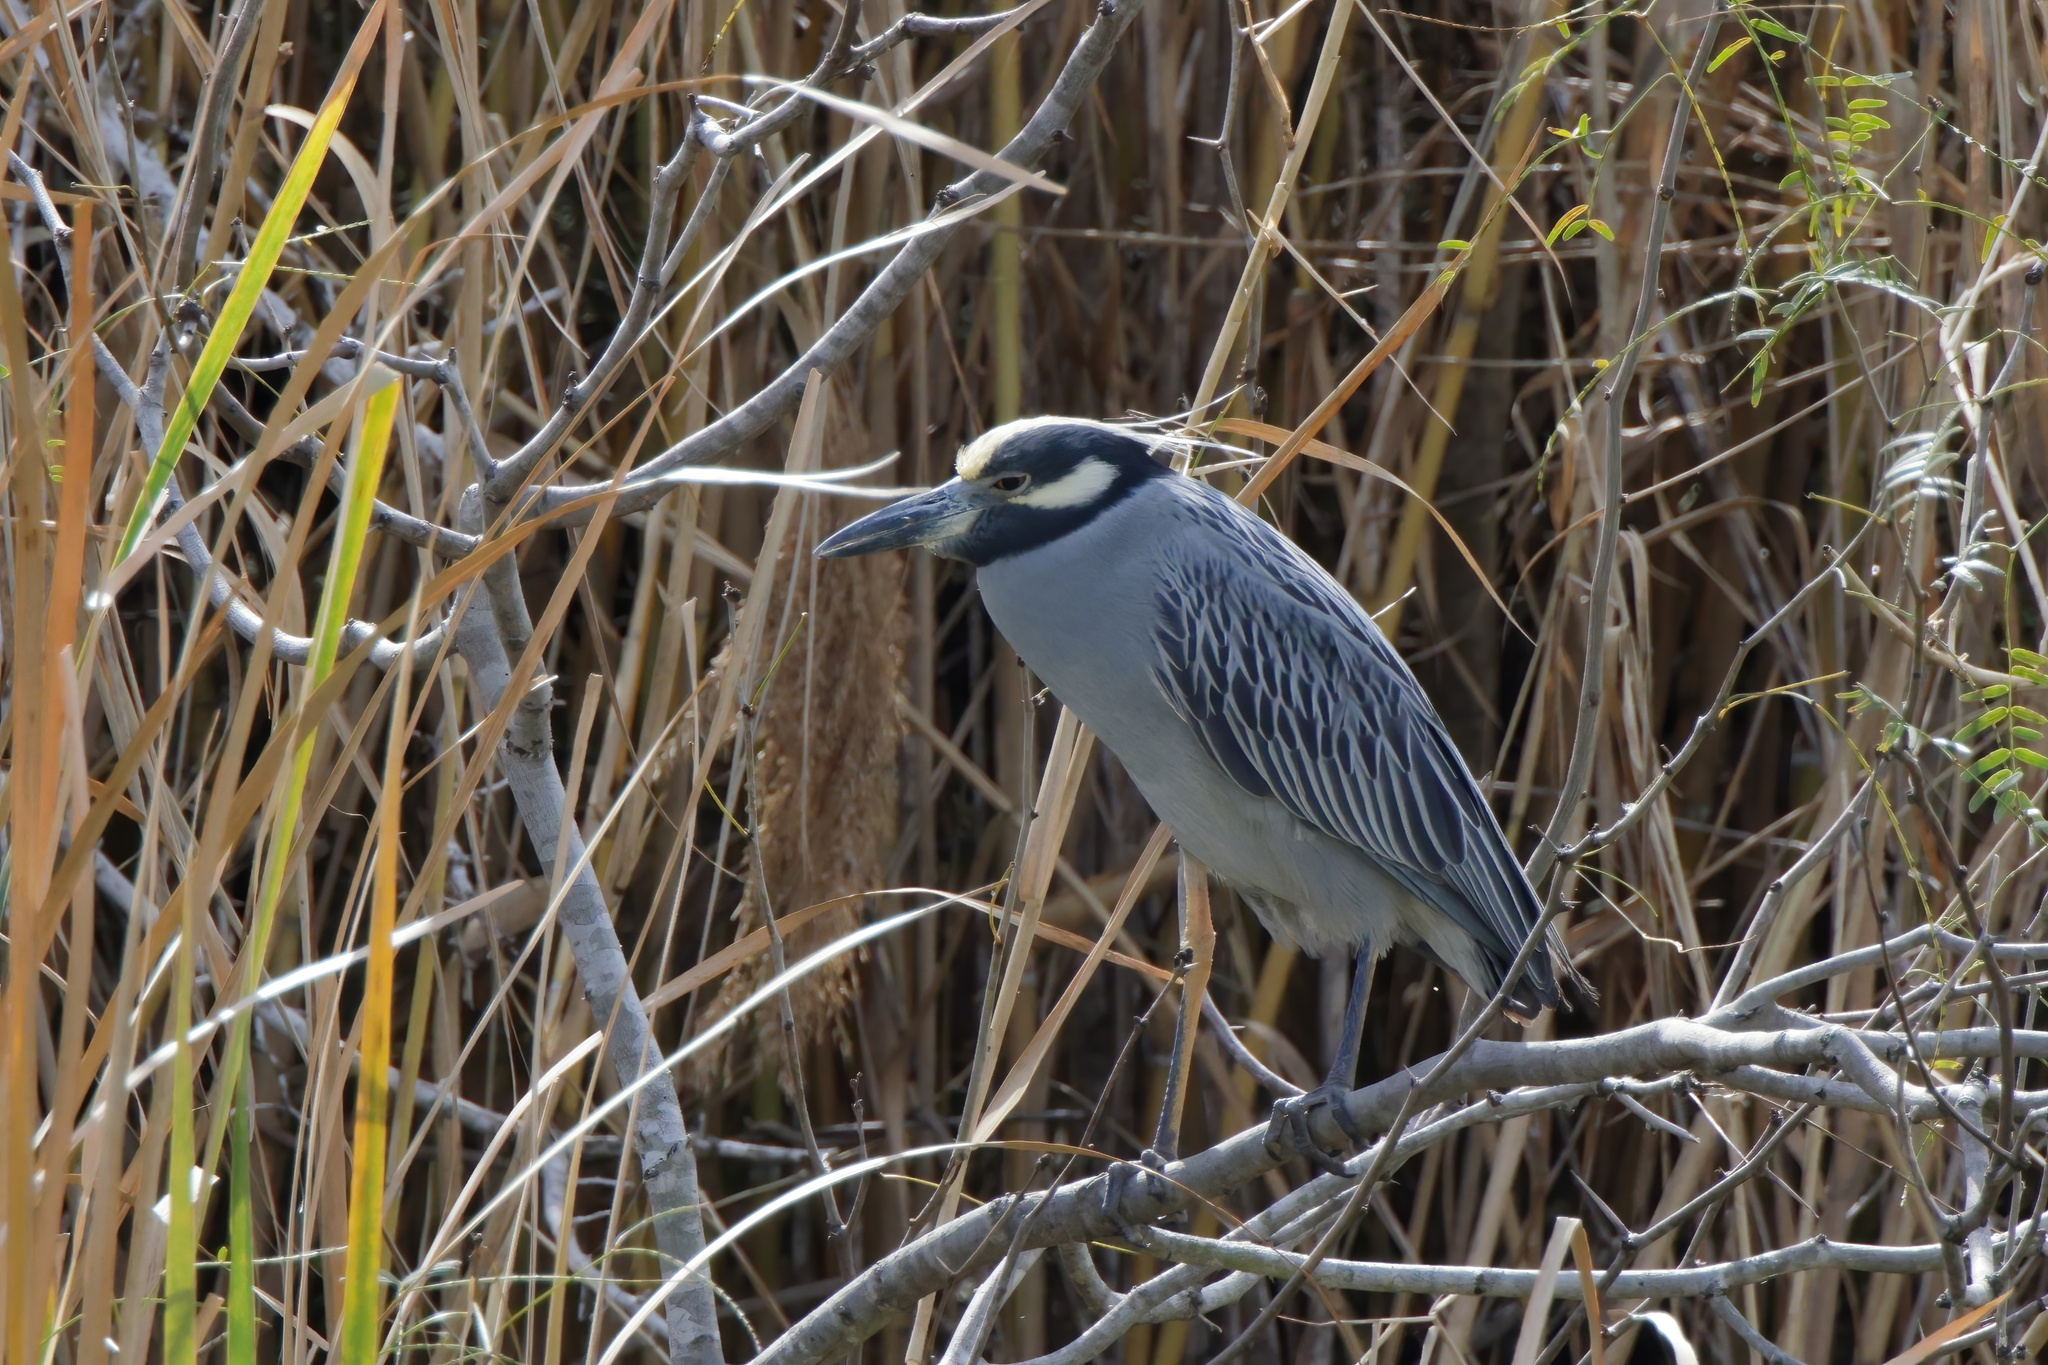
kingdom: Animalia
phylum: Chordata
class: Aves
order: Pelecaniformes
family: Ardeidae
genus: Nyctanassa
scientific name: Nyctanassa violacea
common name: Yellow-crowned night heron
